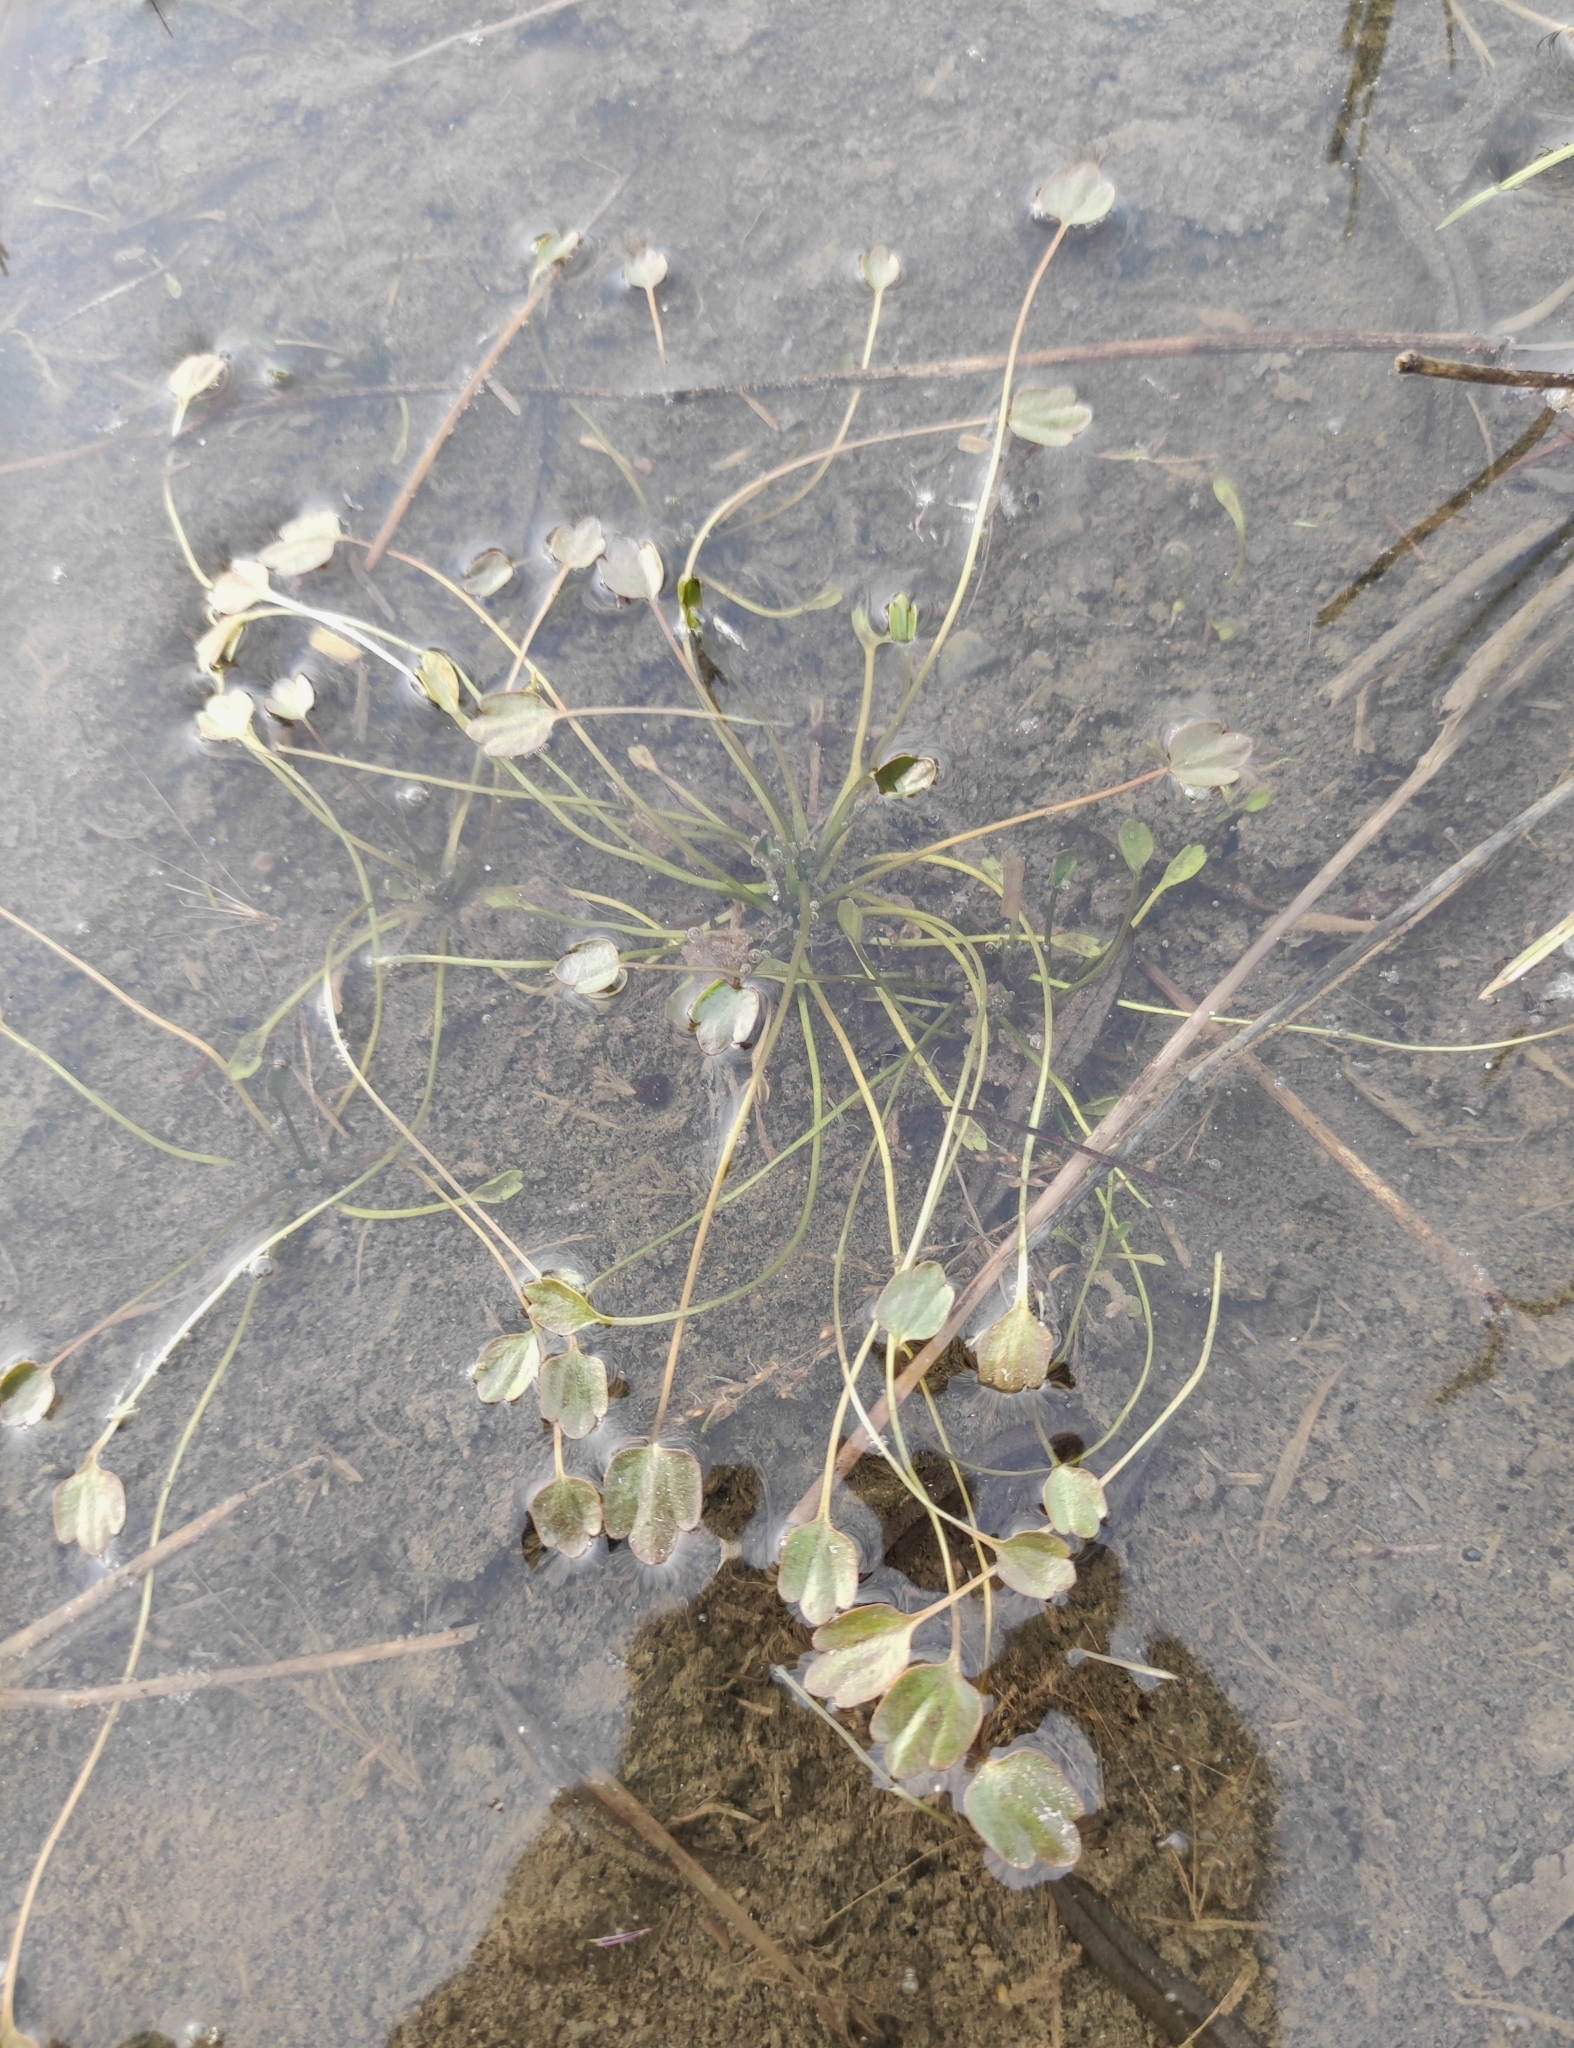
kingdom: Plantae
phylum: Tracheophyta
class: Magnoliopsida
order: Ranunculales
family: Ranunculaceae
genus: Halerpestes
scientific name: Halerpestes sarmentosus
